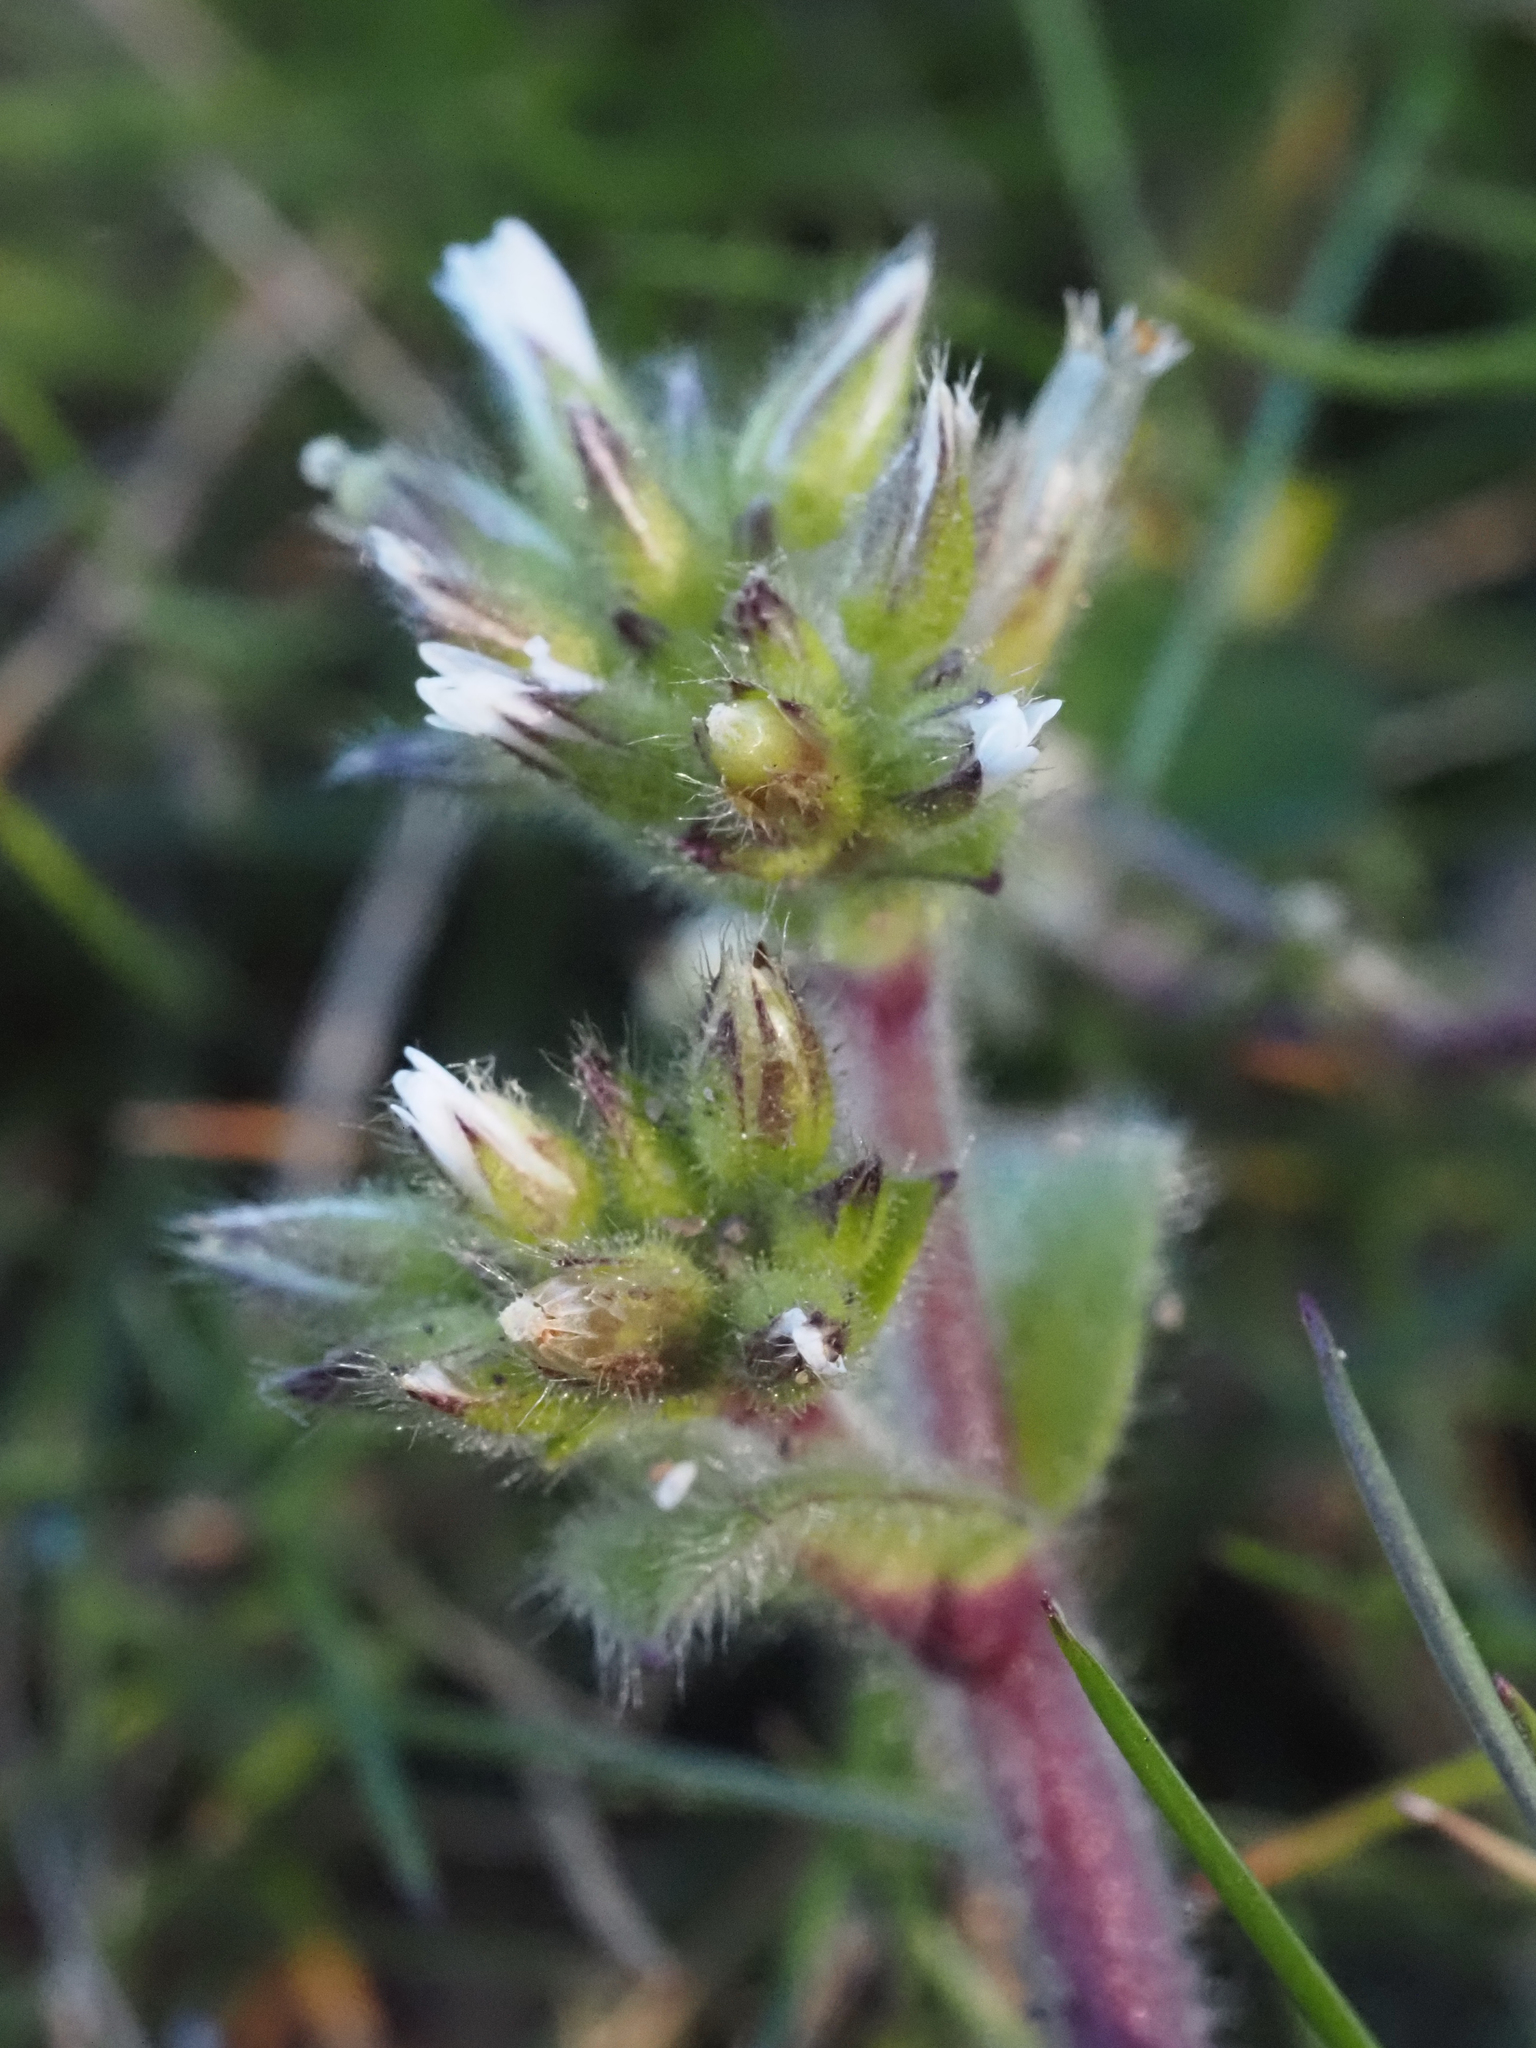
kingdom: Plantae
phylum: Tracheophyta
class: Magnoliopsida
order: Caryophyllales
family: Caryophyllaceae
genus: Cerastium
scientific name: Cerastium glomeratum
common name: Sticky chickweed
